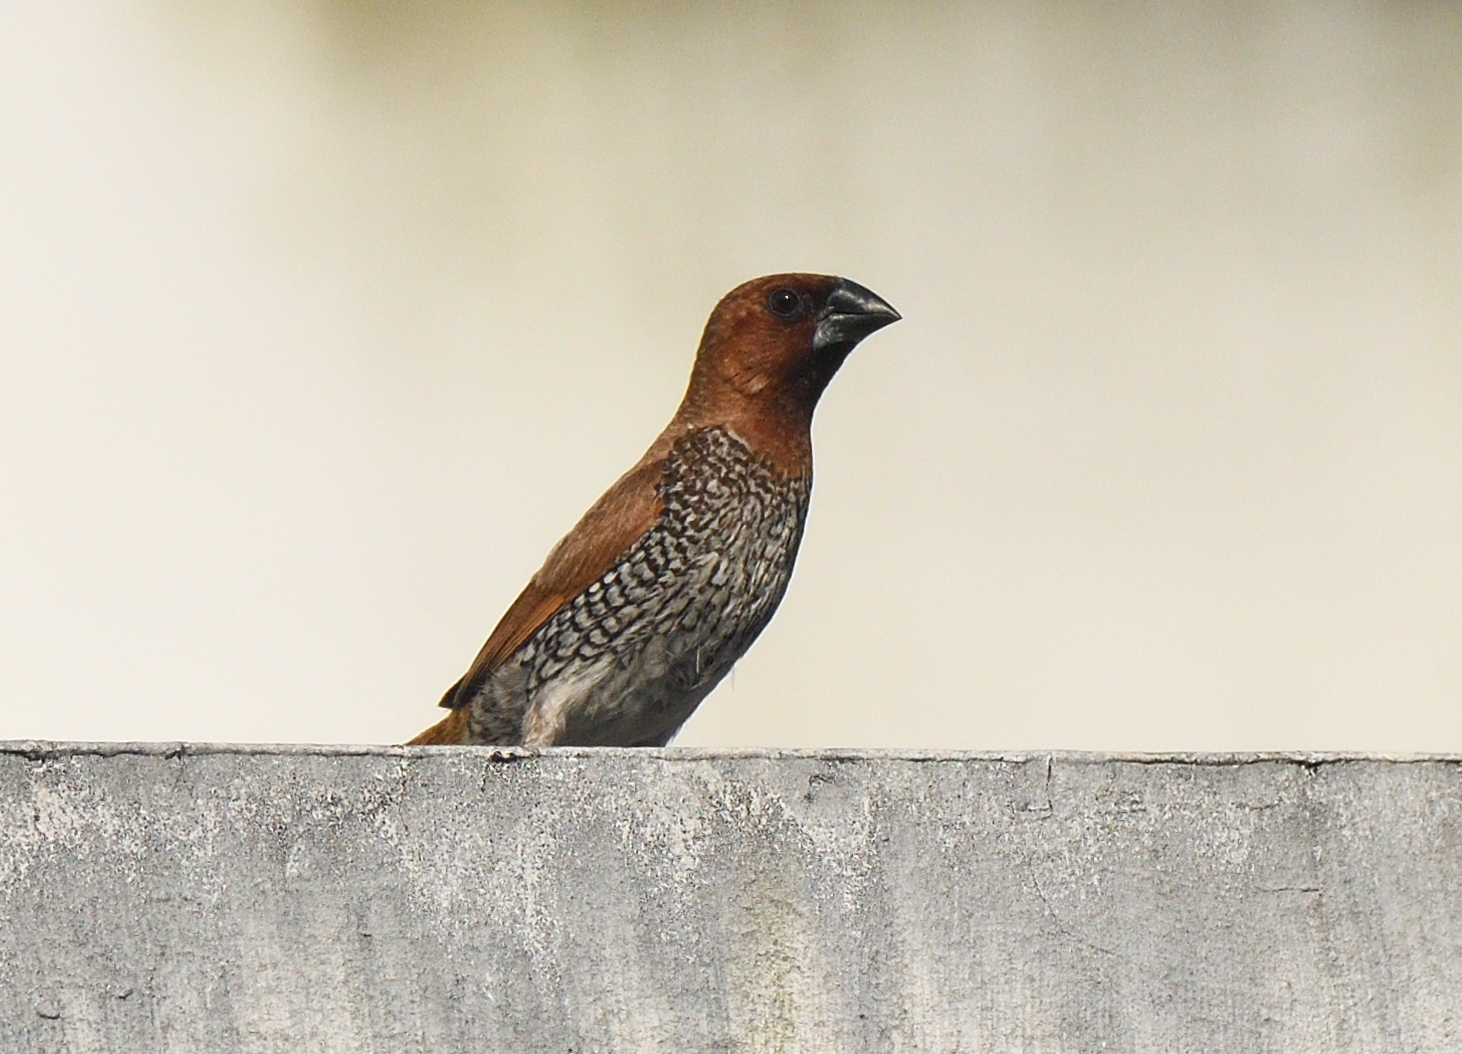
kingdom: Animalia
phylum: Chordata
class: Aves
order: Passeriformes
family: Estrildidae
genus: Lonchura
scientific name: Lonchura punctulata
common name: Scaly-breasted munia
